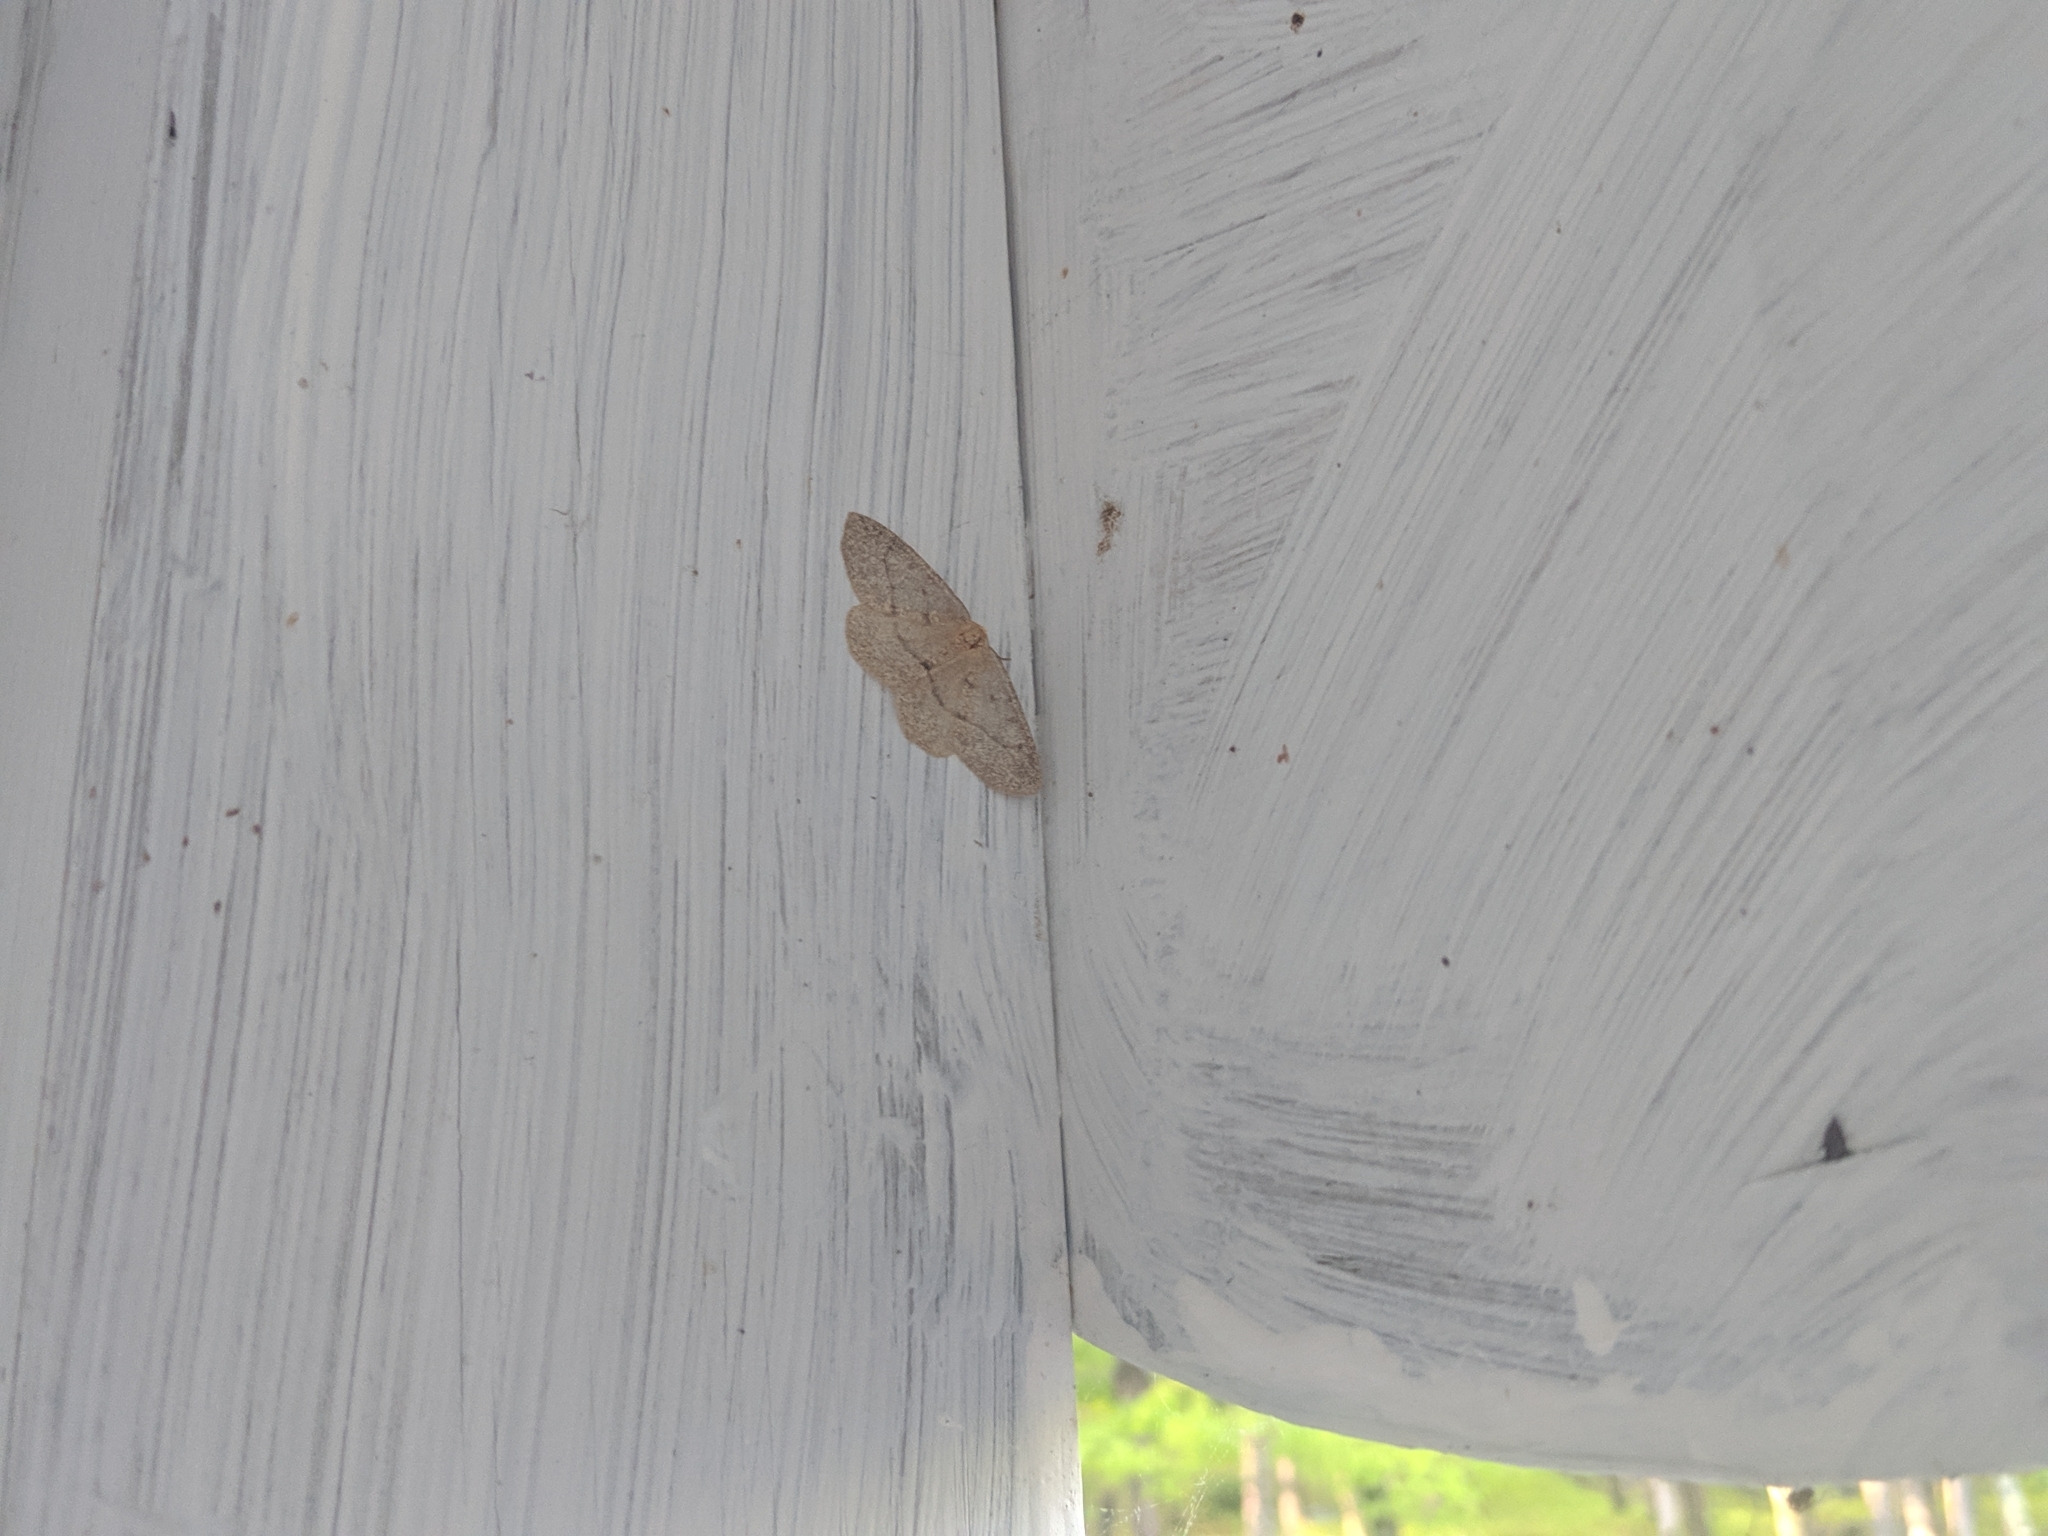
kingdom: Animalia
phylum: Arthropoda
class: Insecta
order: Lepidoptera
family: Geometridae
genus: Lambdina
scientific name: Lambdina fervidaria
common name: Curve-lined looper moth
